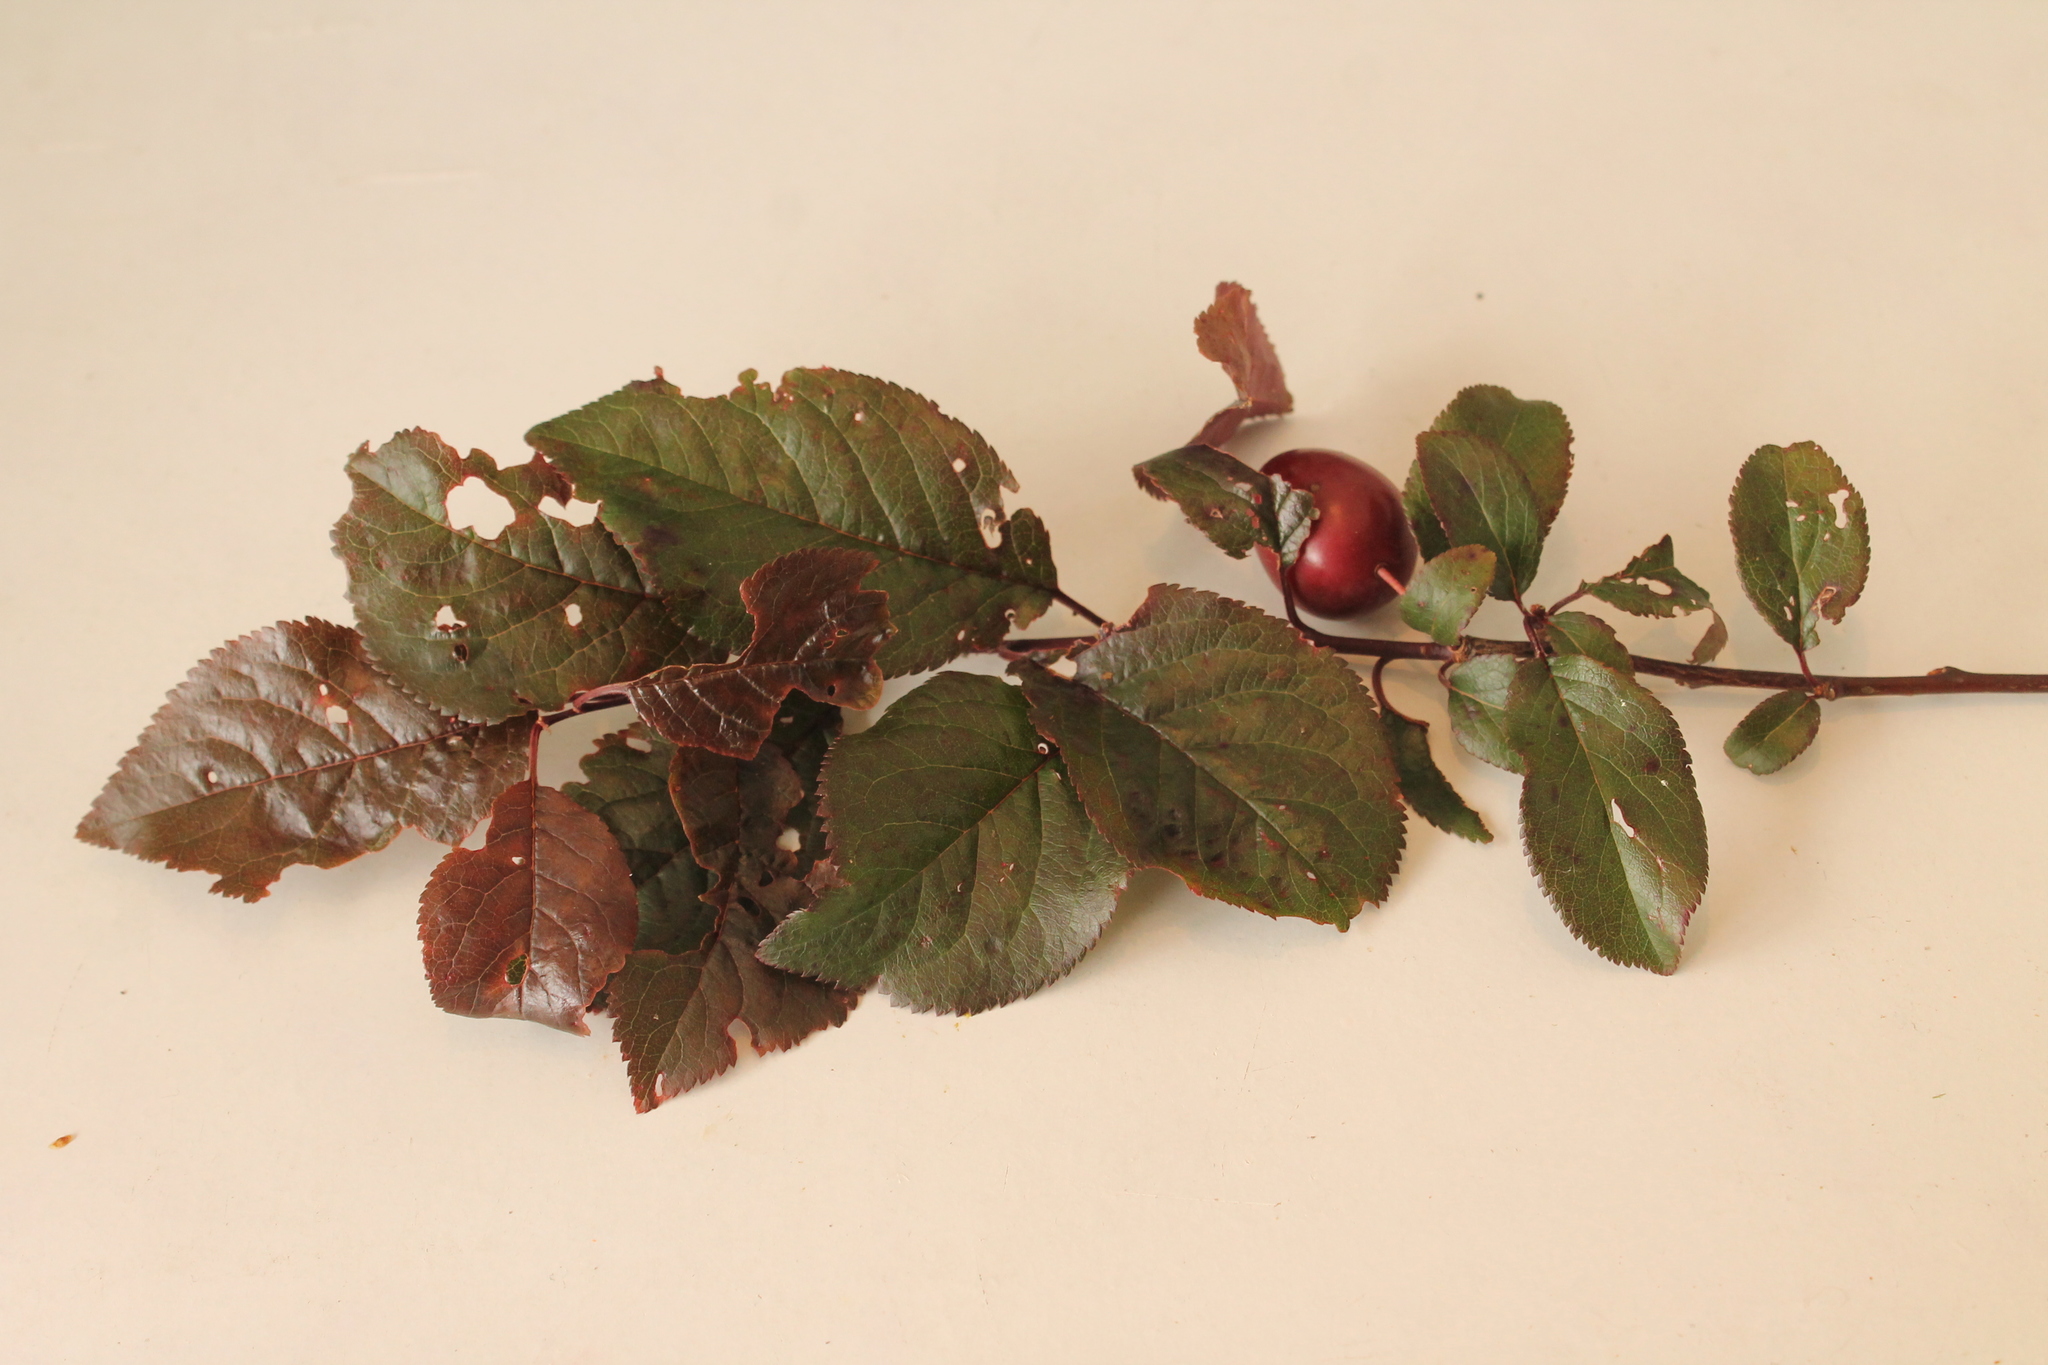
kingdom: Plantae
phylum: Tracheophyta
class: Magnoliopsida
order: Rosales
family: Rosaceae
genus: Prunus
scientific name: Prunus cerasifera
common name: Cherry plum
